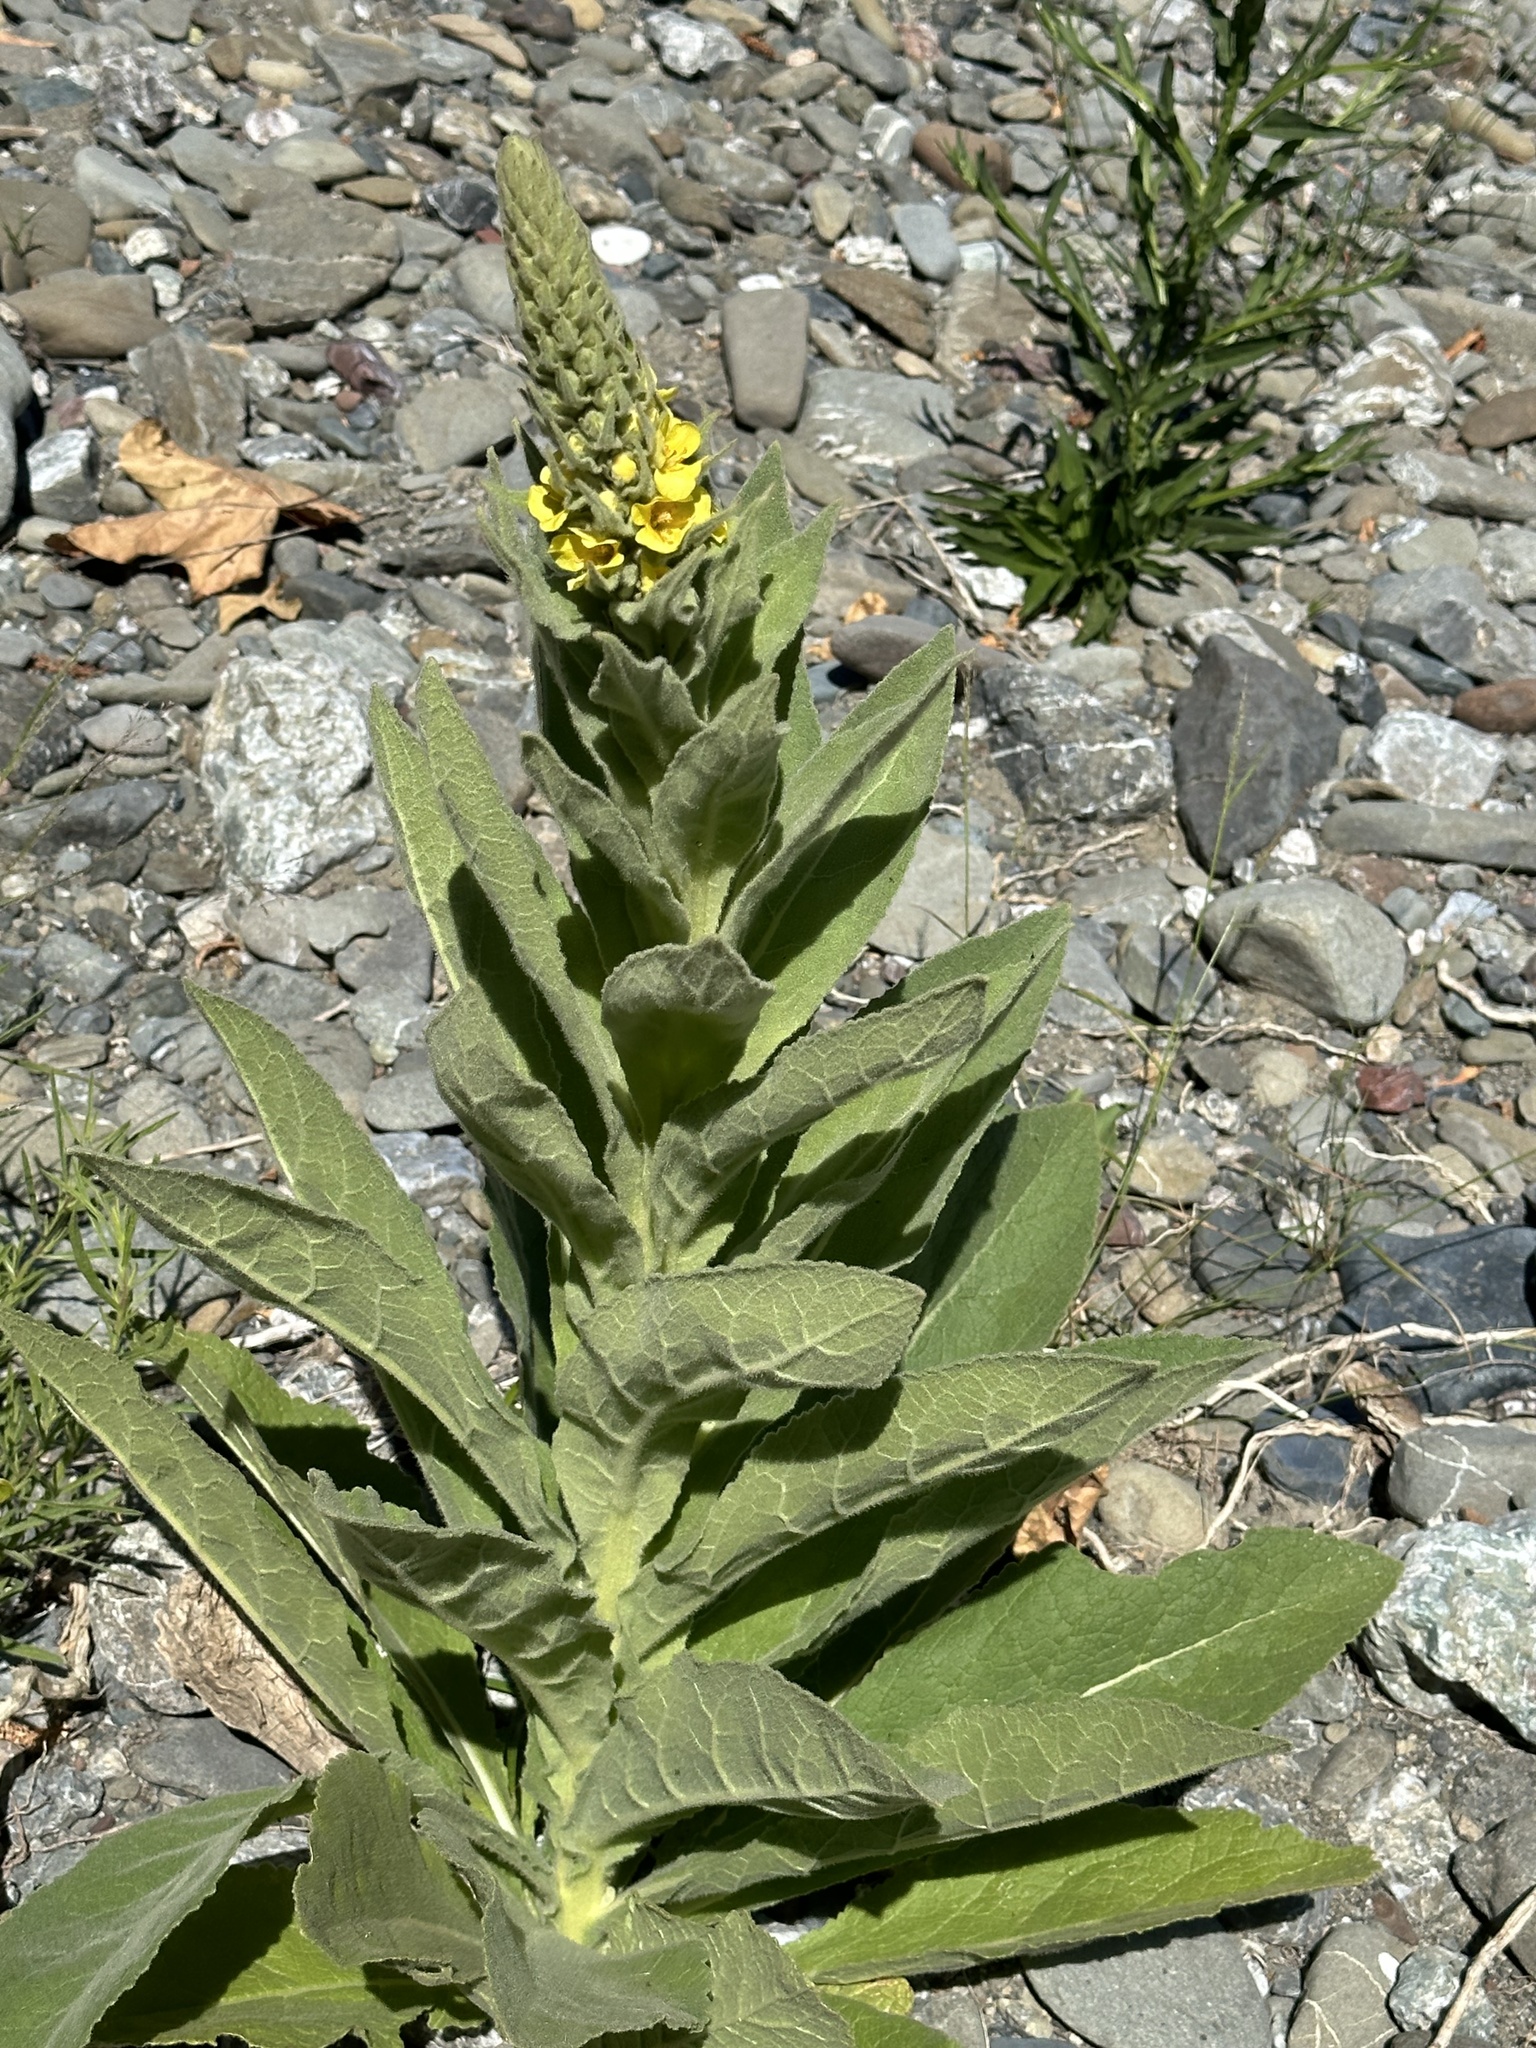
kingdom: Plantae
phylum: Tracheophyta
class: Magnoliopsida
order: Lamiales
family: Scrophulariaceae
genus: Verbascum
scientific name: Verbascum thapsus
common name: Common mullein
